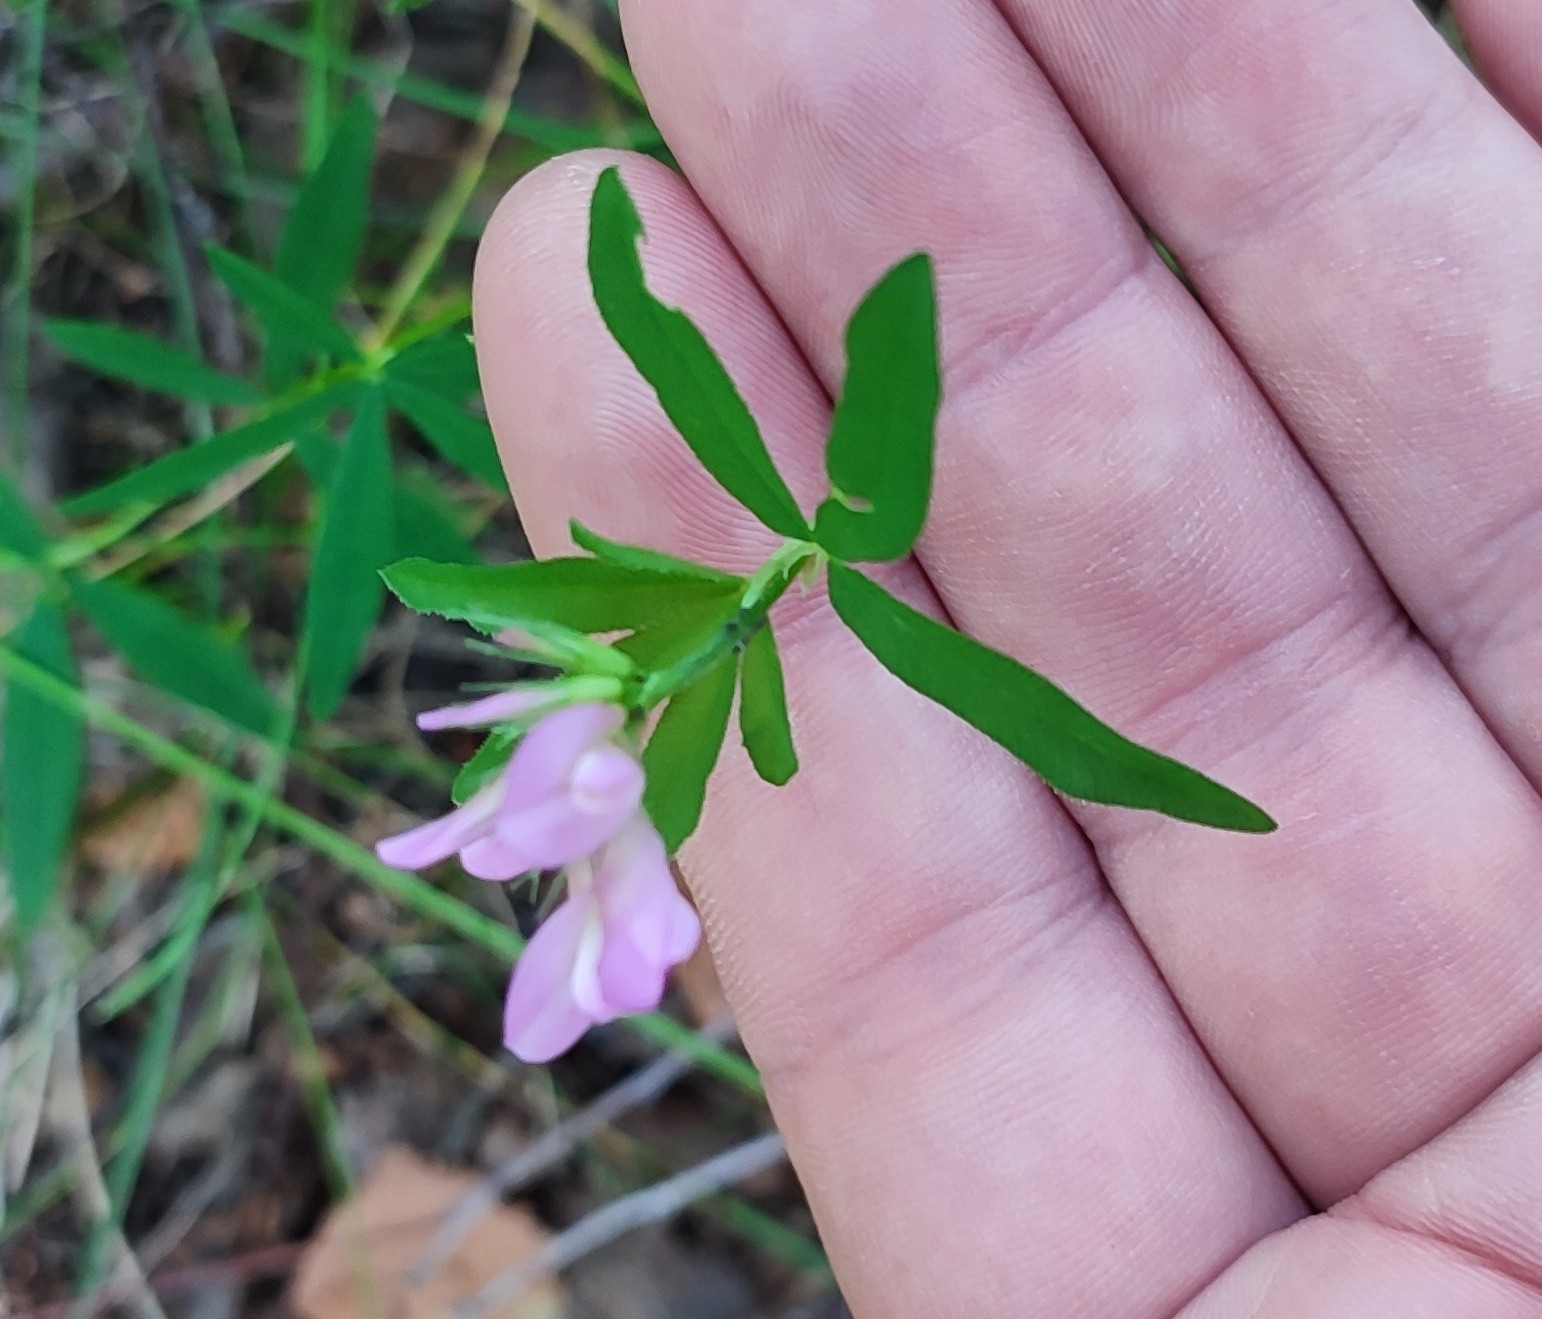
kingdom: Plantae
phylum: Tracheophyta
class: Magnoliopsida
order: Fabales
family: Fabaceae
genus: Trifolium
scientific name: Trifolium lupinaster
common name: Lupine clover
